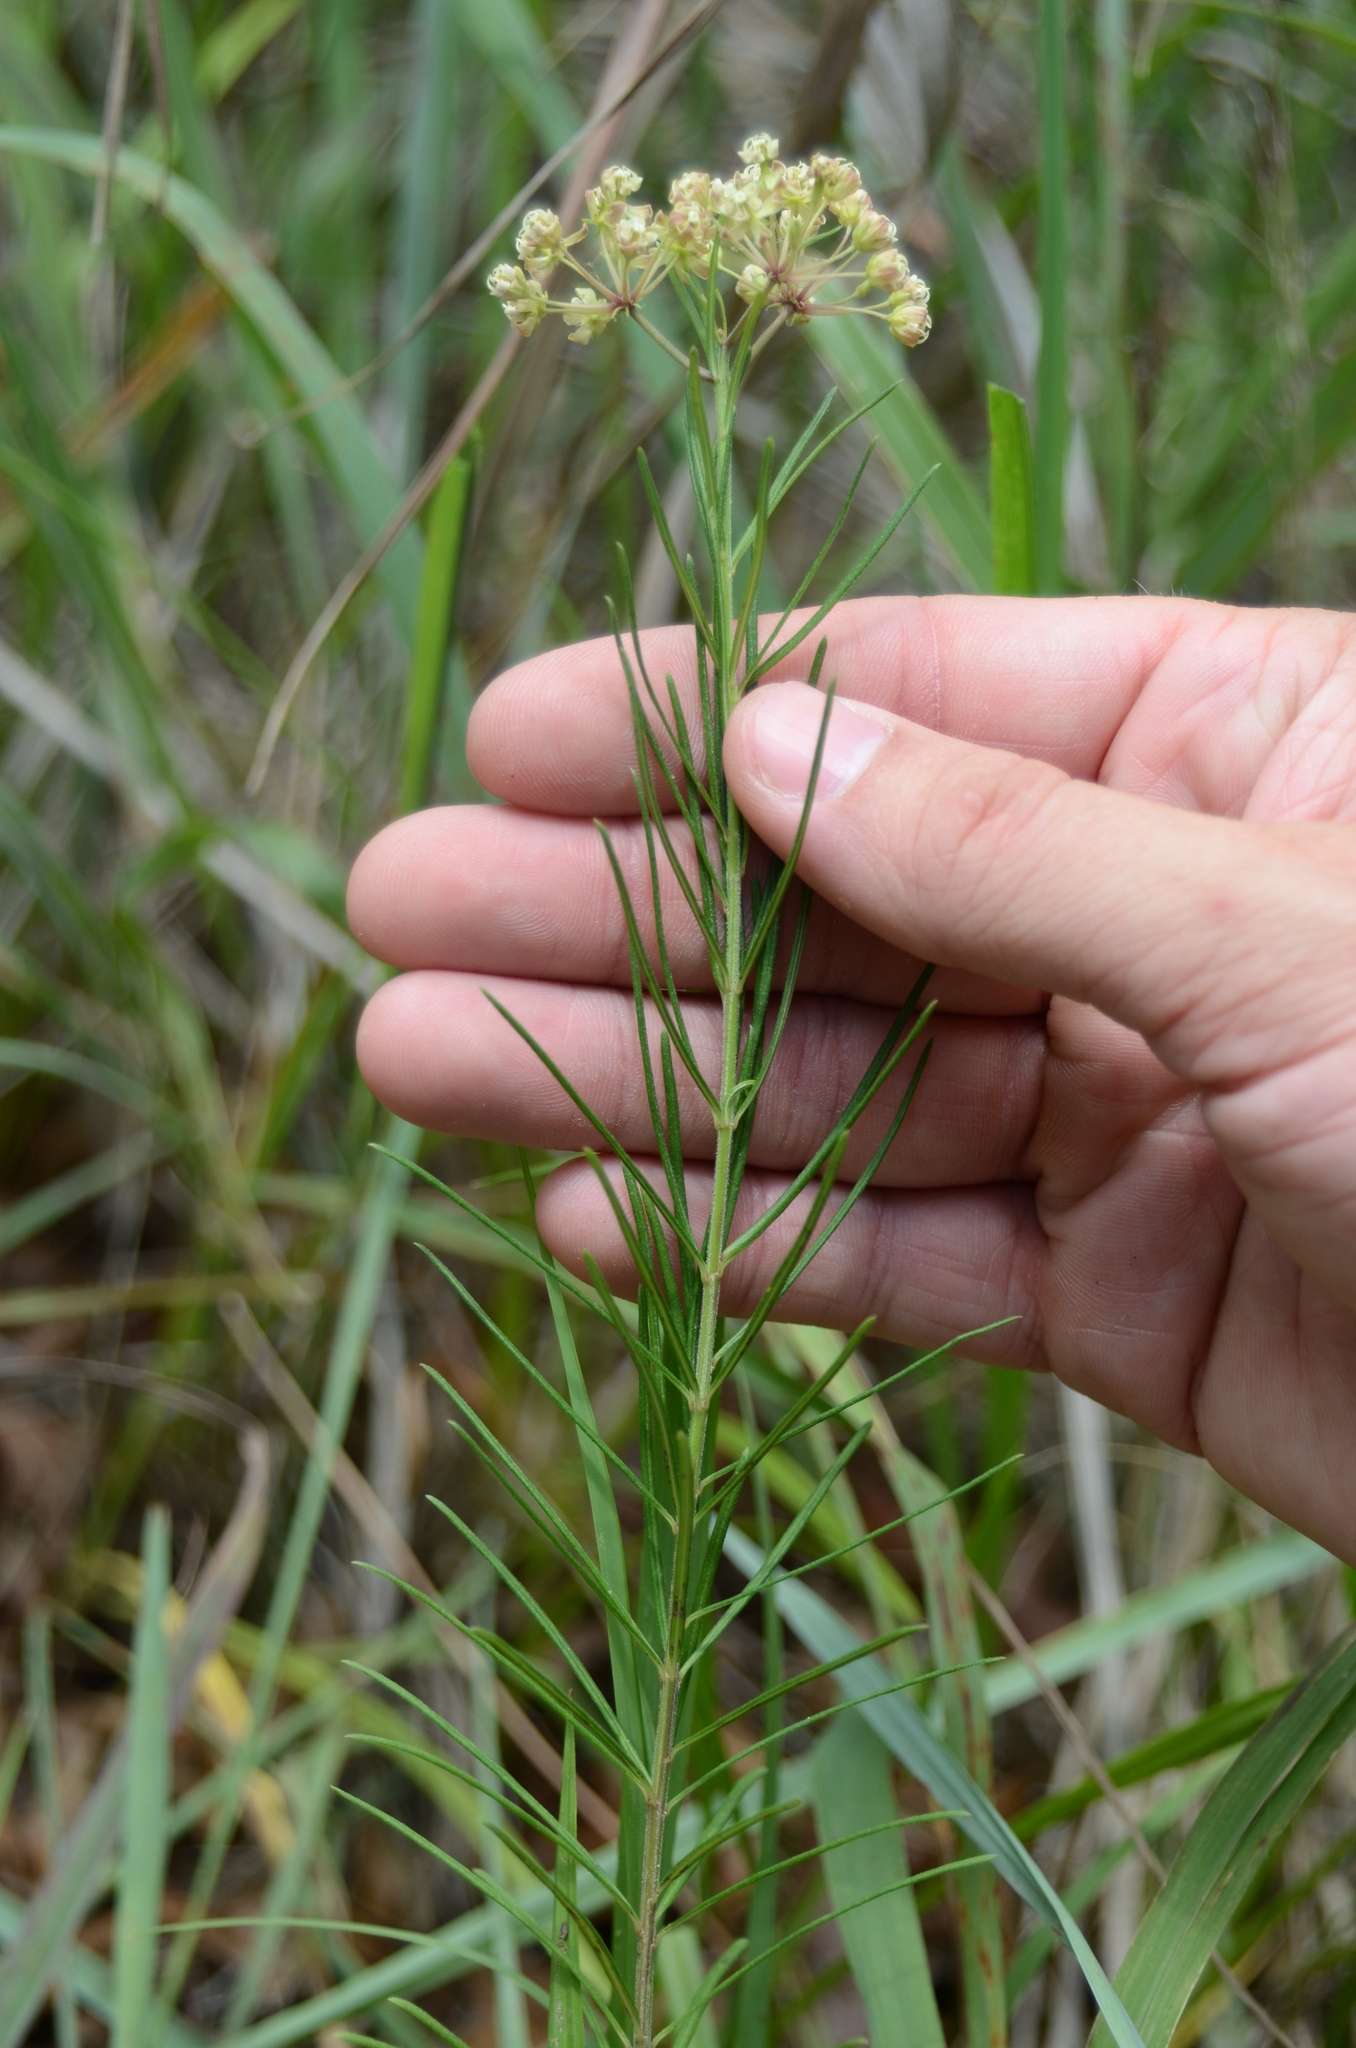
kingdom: Plantae
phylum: Tracheophyta
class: Magnoliopsida
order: Gentianales
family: Apocynaceae
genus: Asclepias
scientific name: Asclepias verticillata
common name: Eastern whorled milkweed
